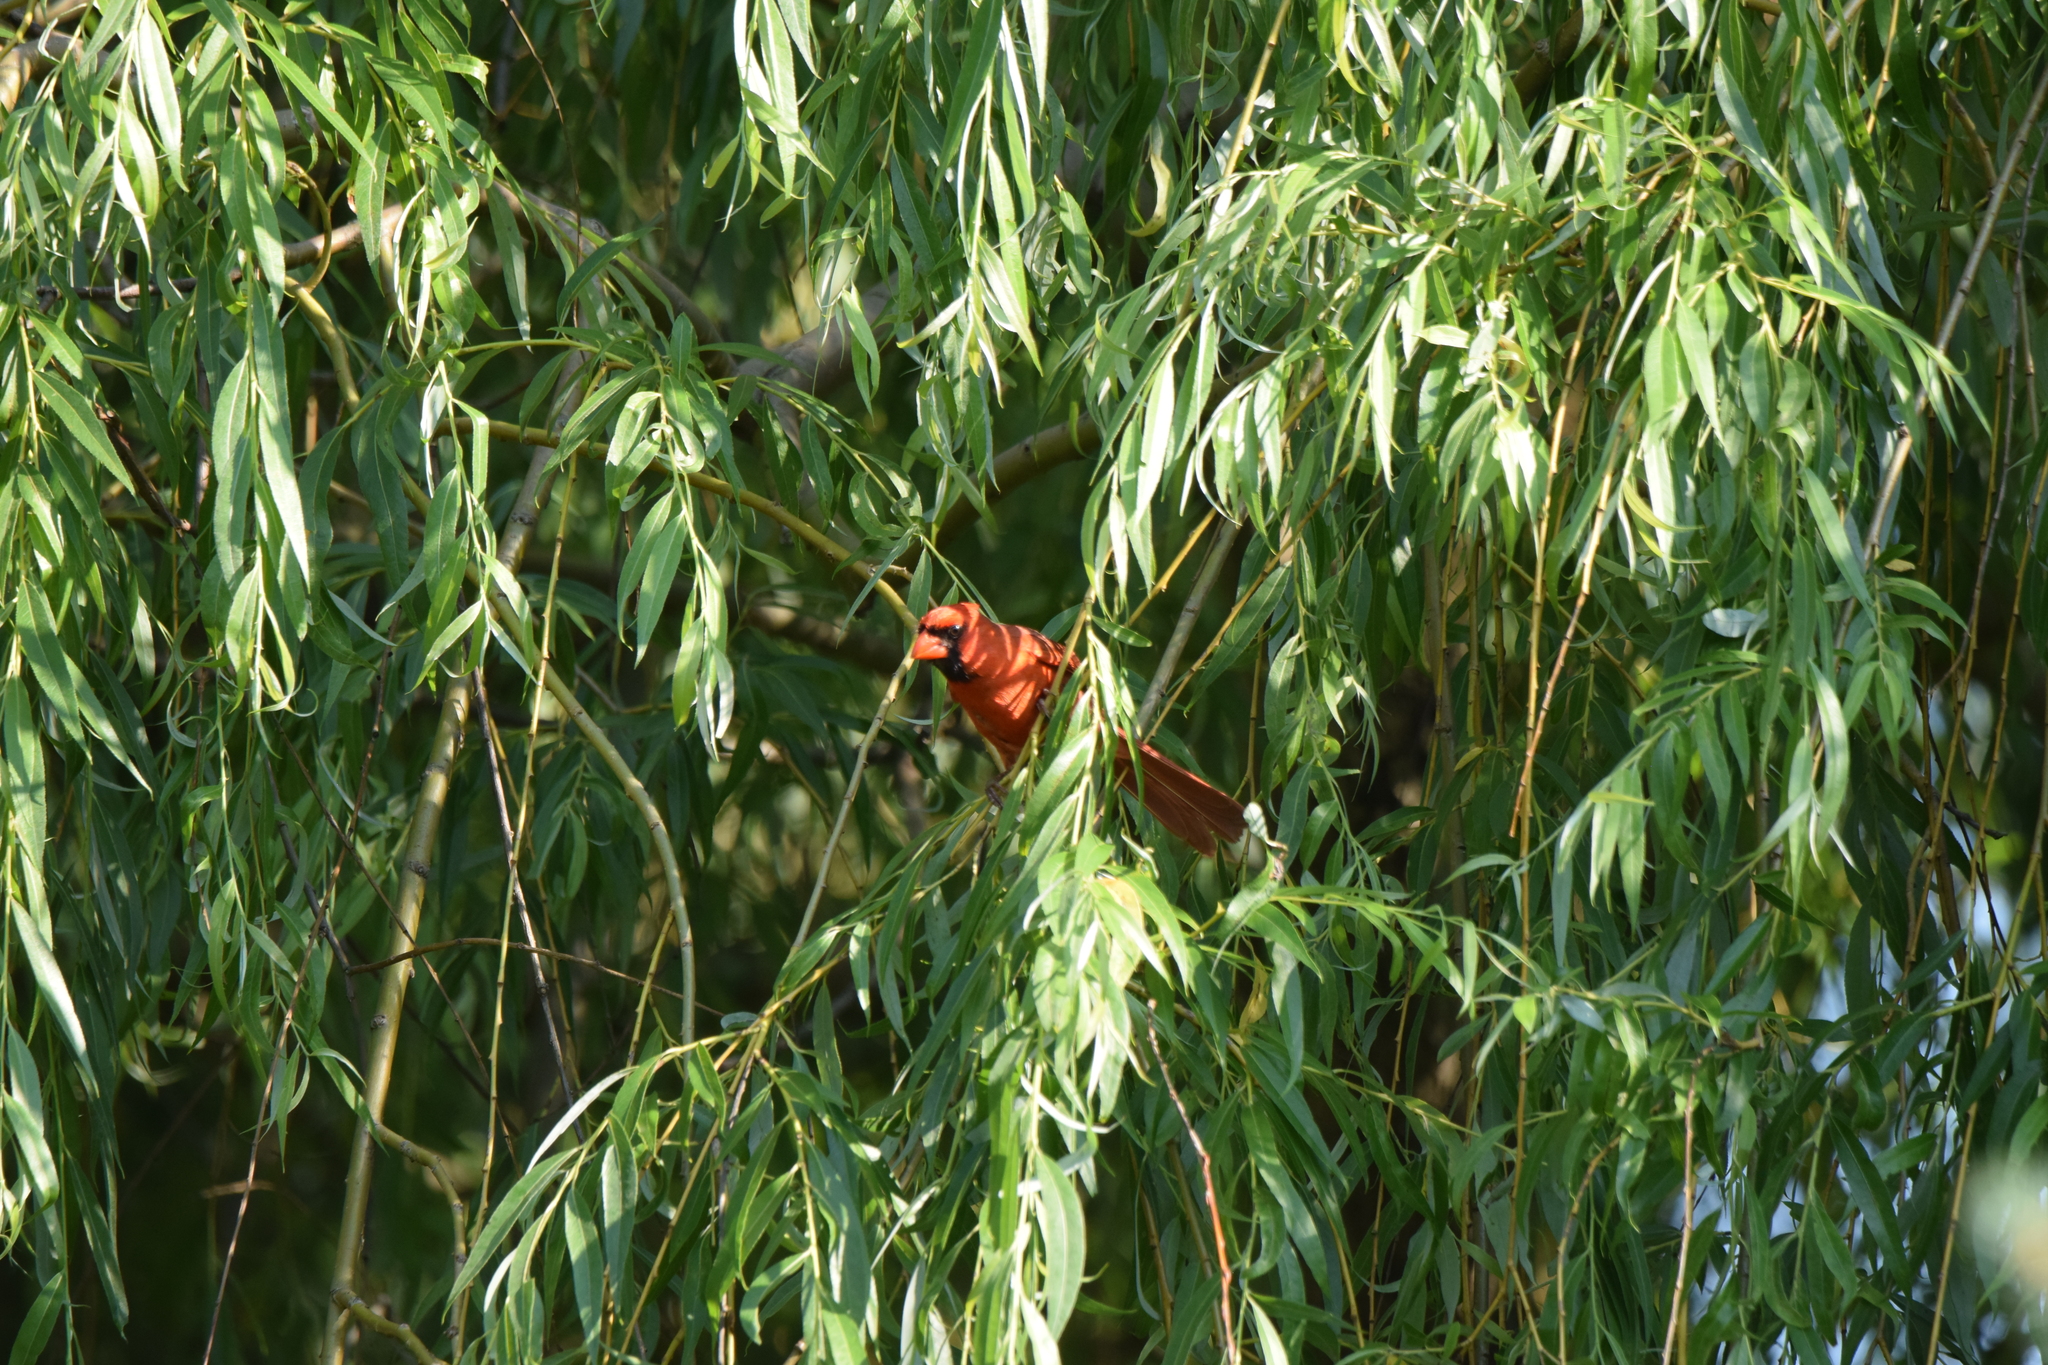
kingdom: Animalia
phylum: Chordata
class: Aves
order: Passeriformes
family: Cardinalidae
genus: Cardinalis
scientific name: Cardinalis cardinalis
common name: Northern cardinal
